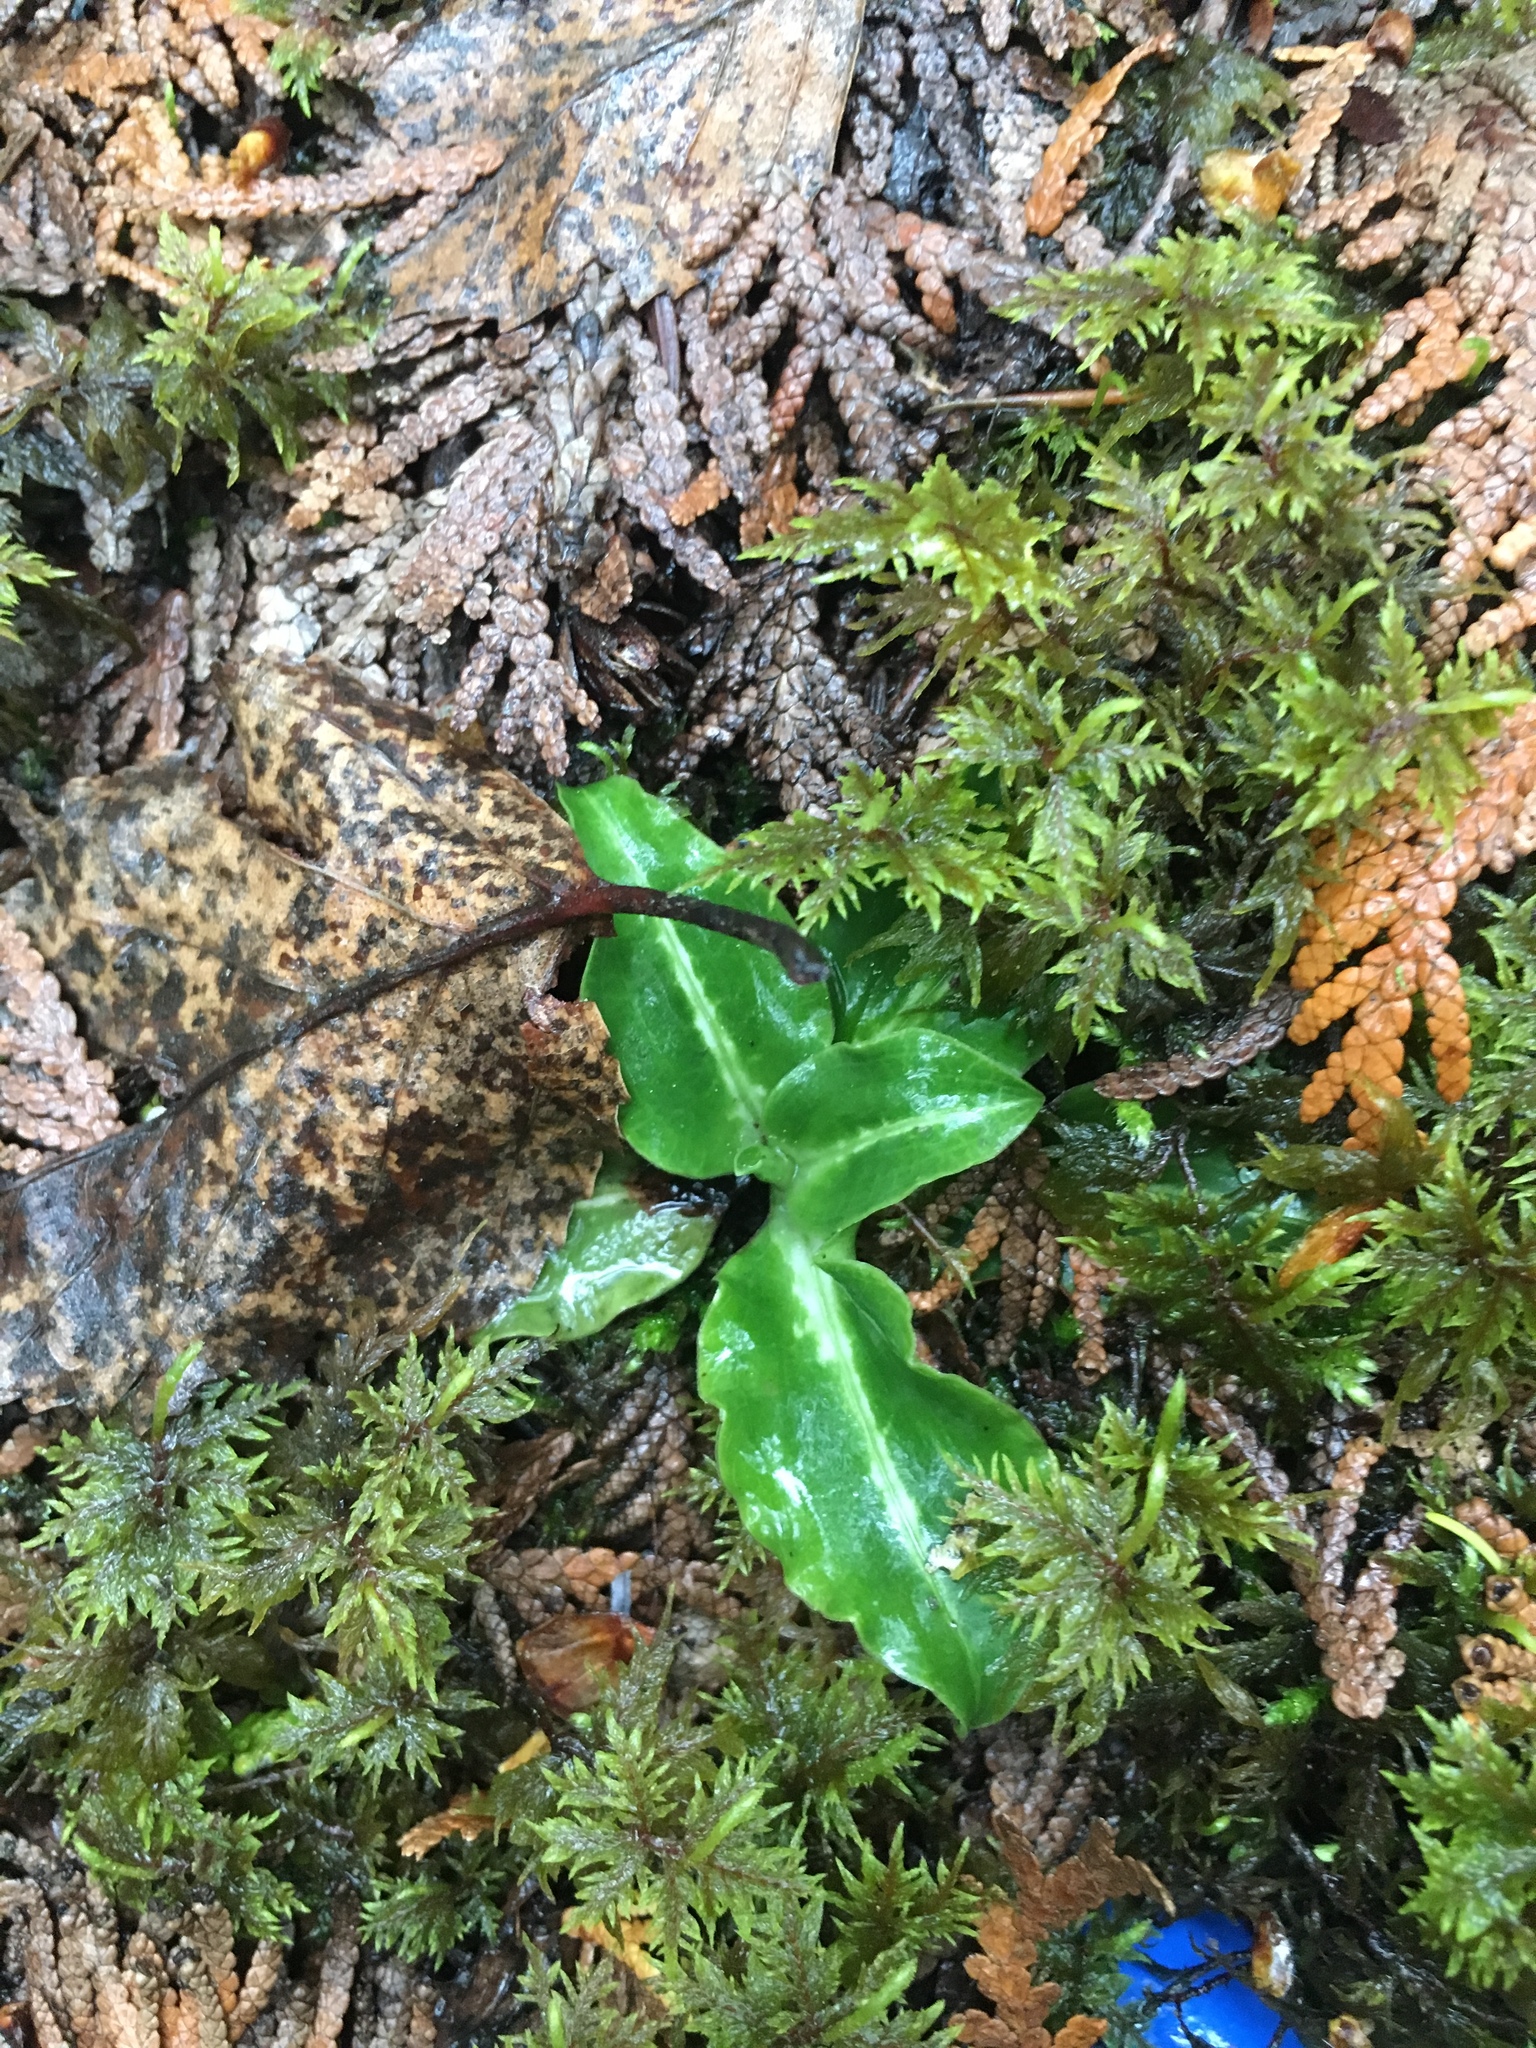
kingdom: Plantae
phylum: Tracheophyta
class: Liliopsida
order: Asparagales
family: Orchidaceae
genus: Goodyera
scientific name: Goodyera oblongifolia
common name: Giant rattlesnake-plantain
